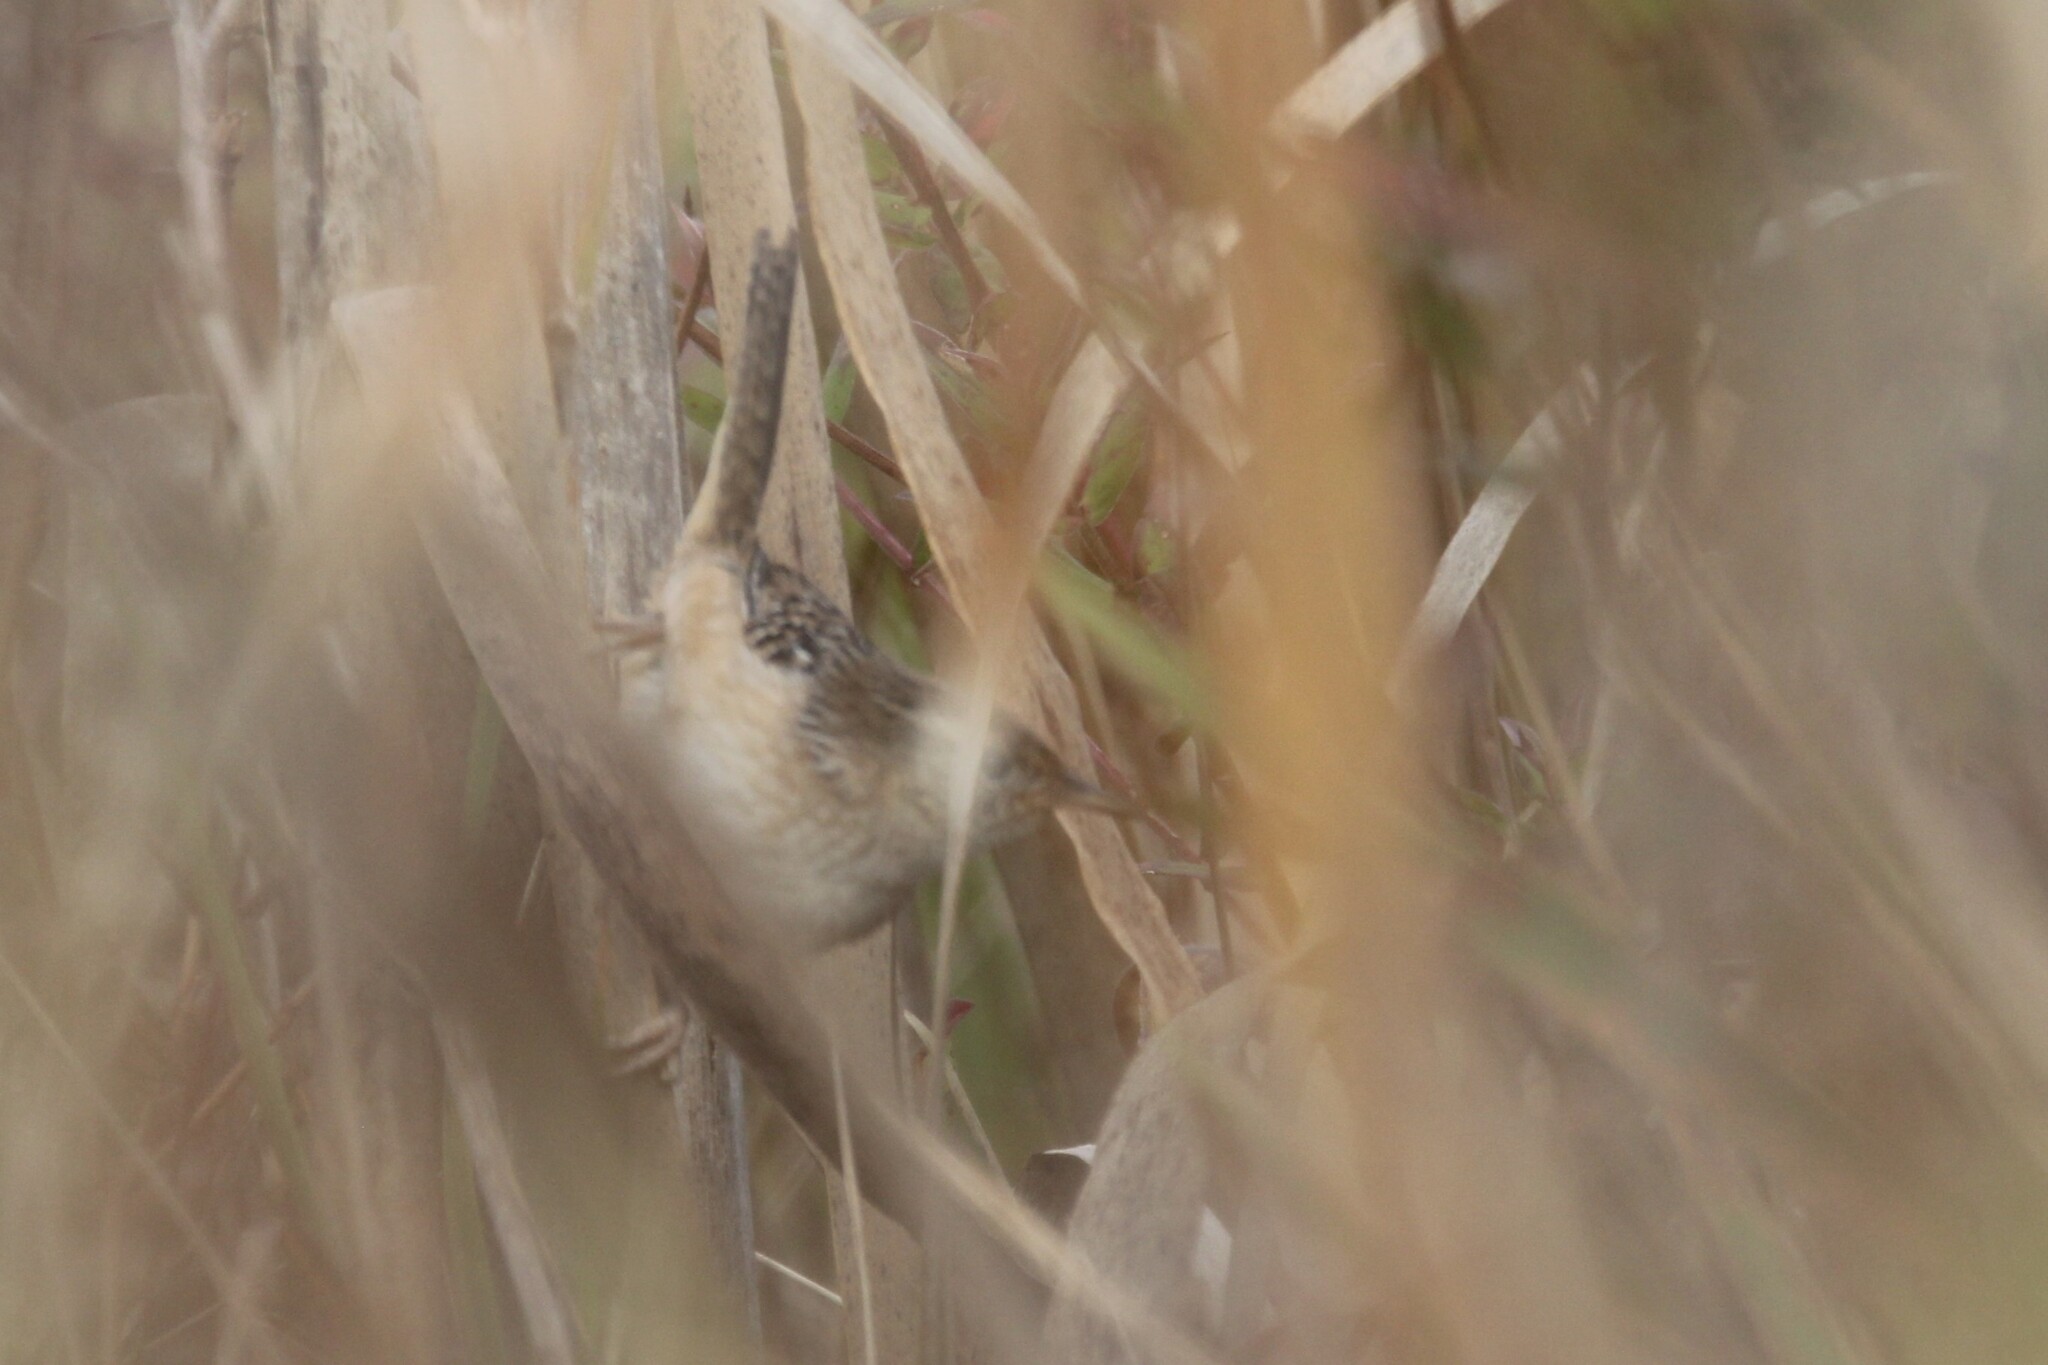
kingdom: Animalia
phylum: Chordata
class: Aves
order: Passeriformes
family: Troglodytidae
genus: Cistothorus
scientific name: Cistothorus platensis
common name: Sedge wren
